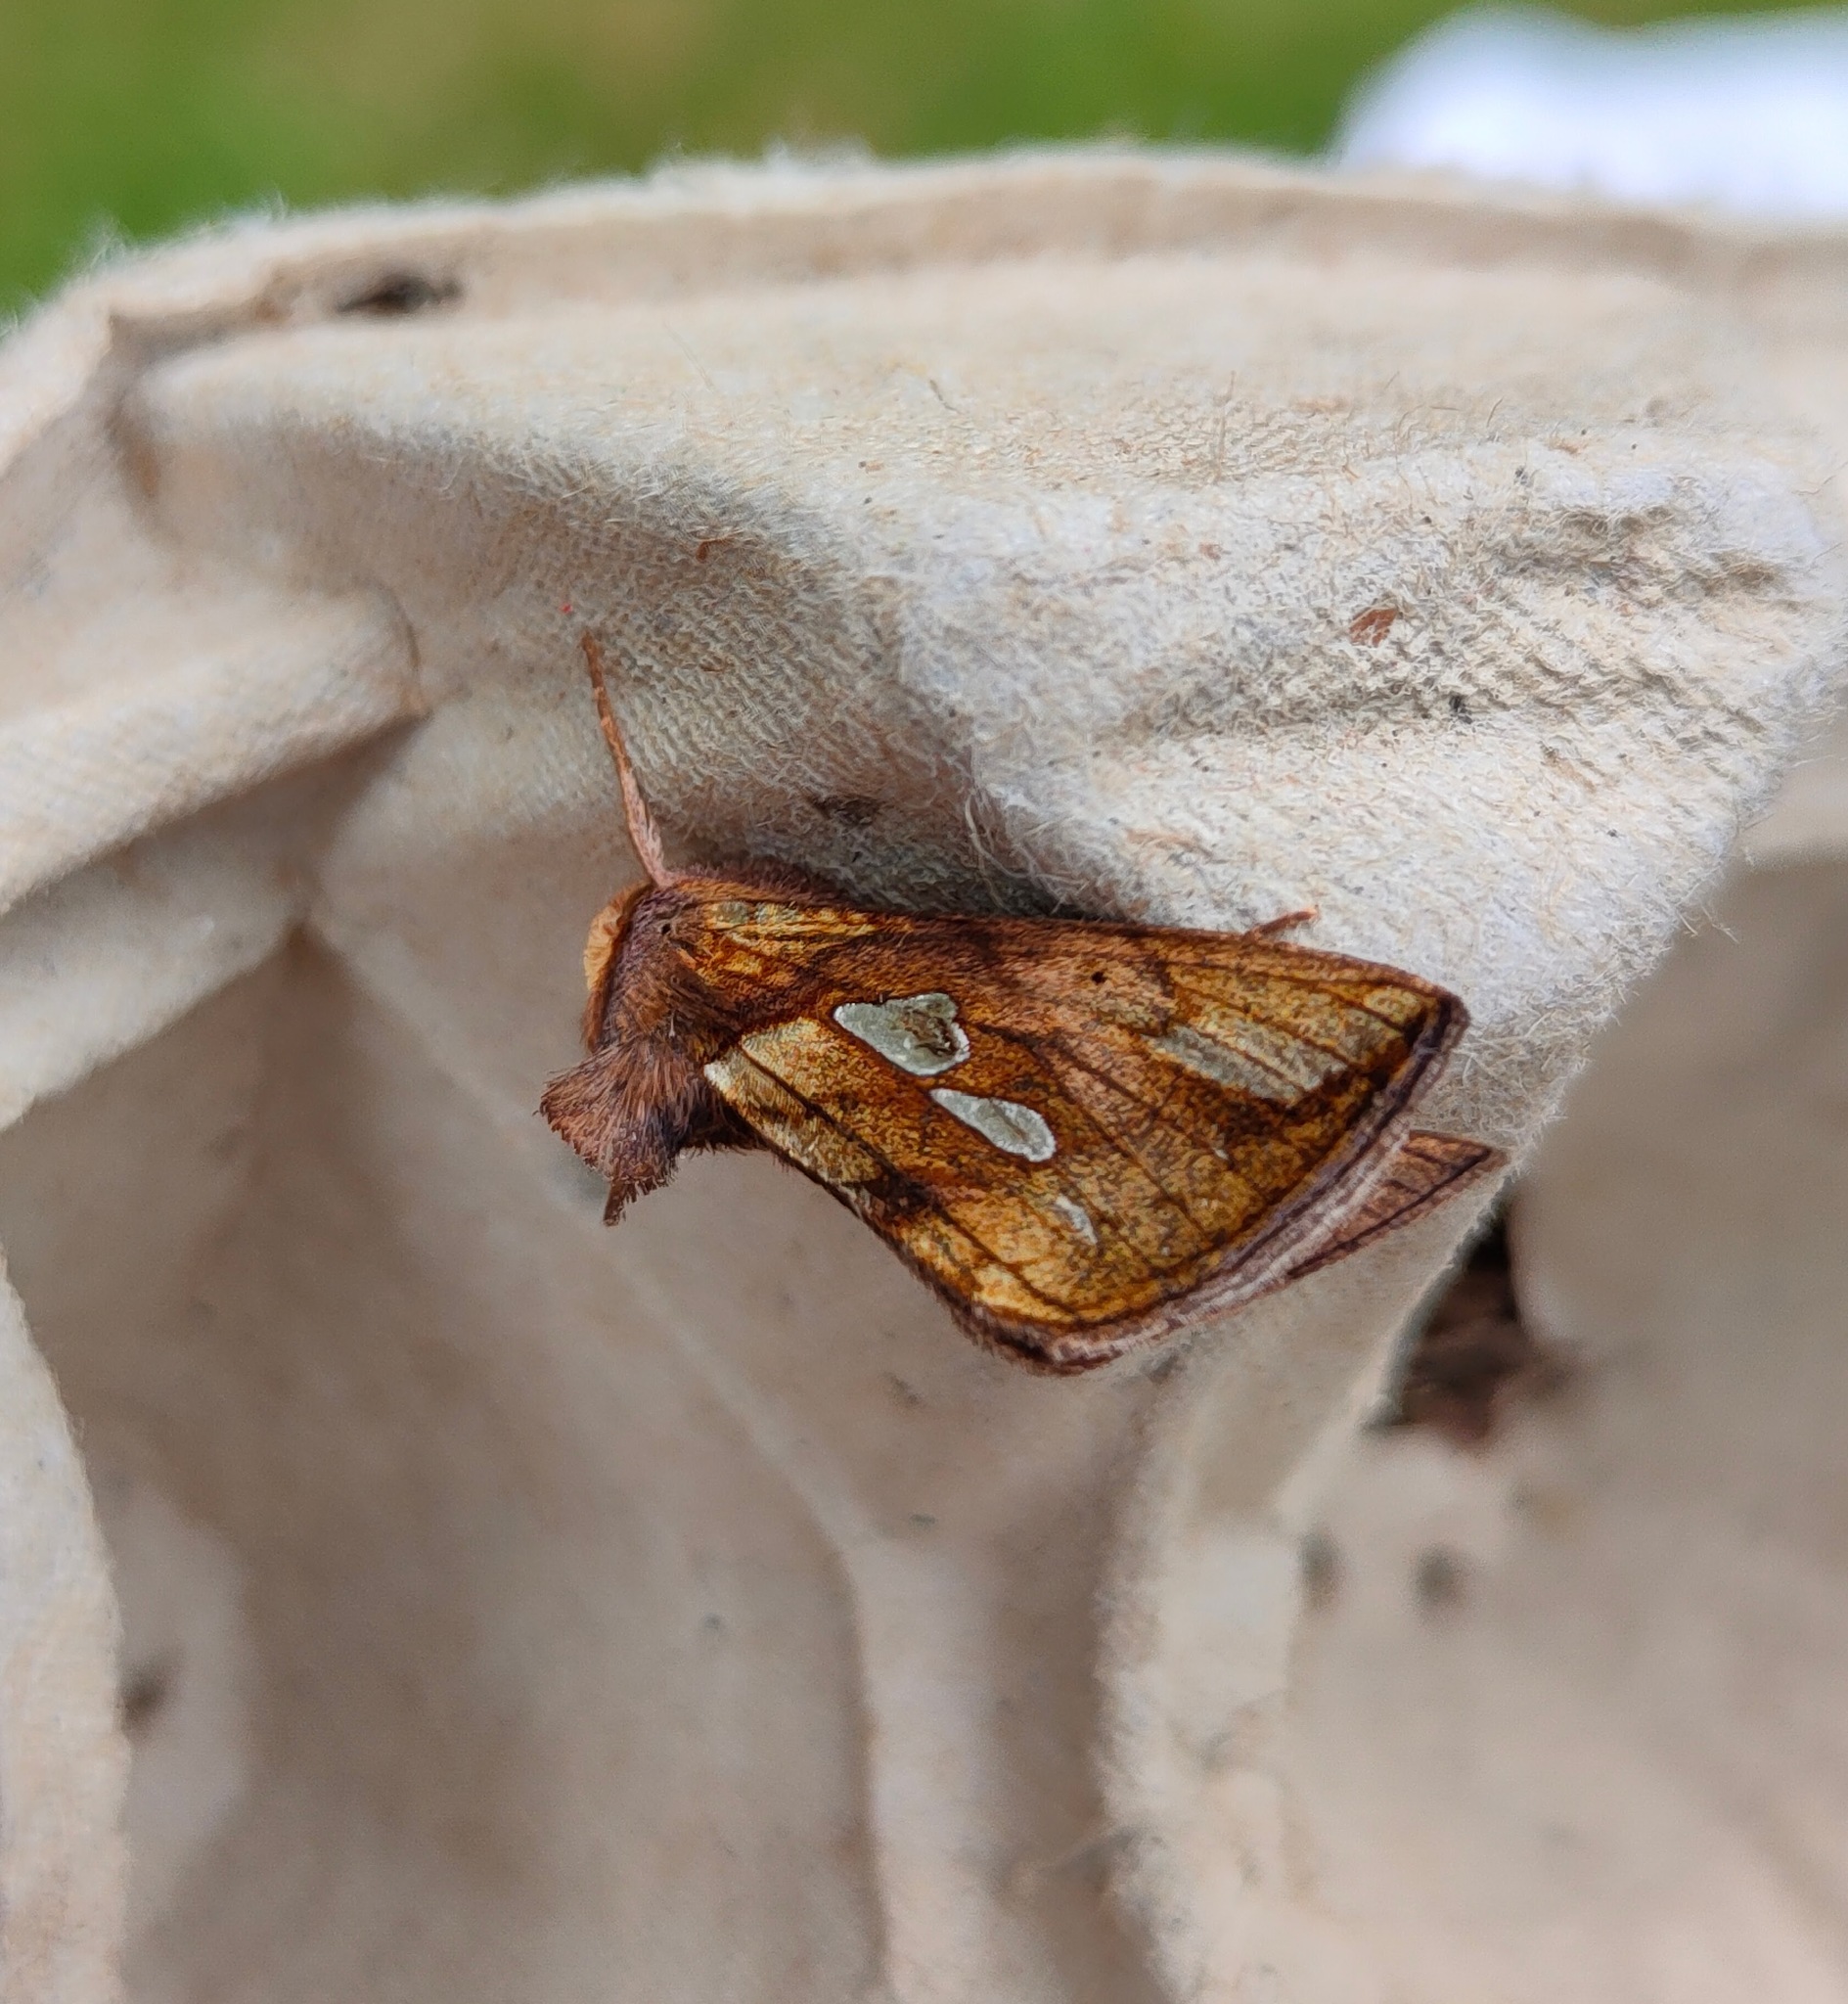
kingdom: Animalia
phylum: Arthropoda
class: Insecta
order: Lepidoptera
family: Noctuidae
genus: Plusia
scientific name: Plusia festucae
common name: Gold spot
